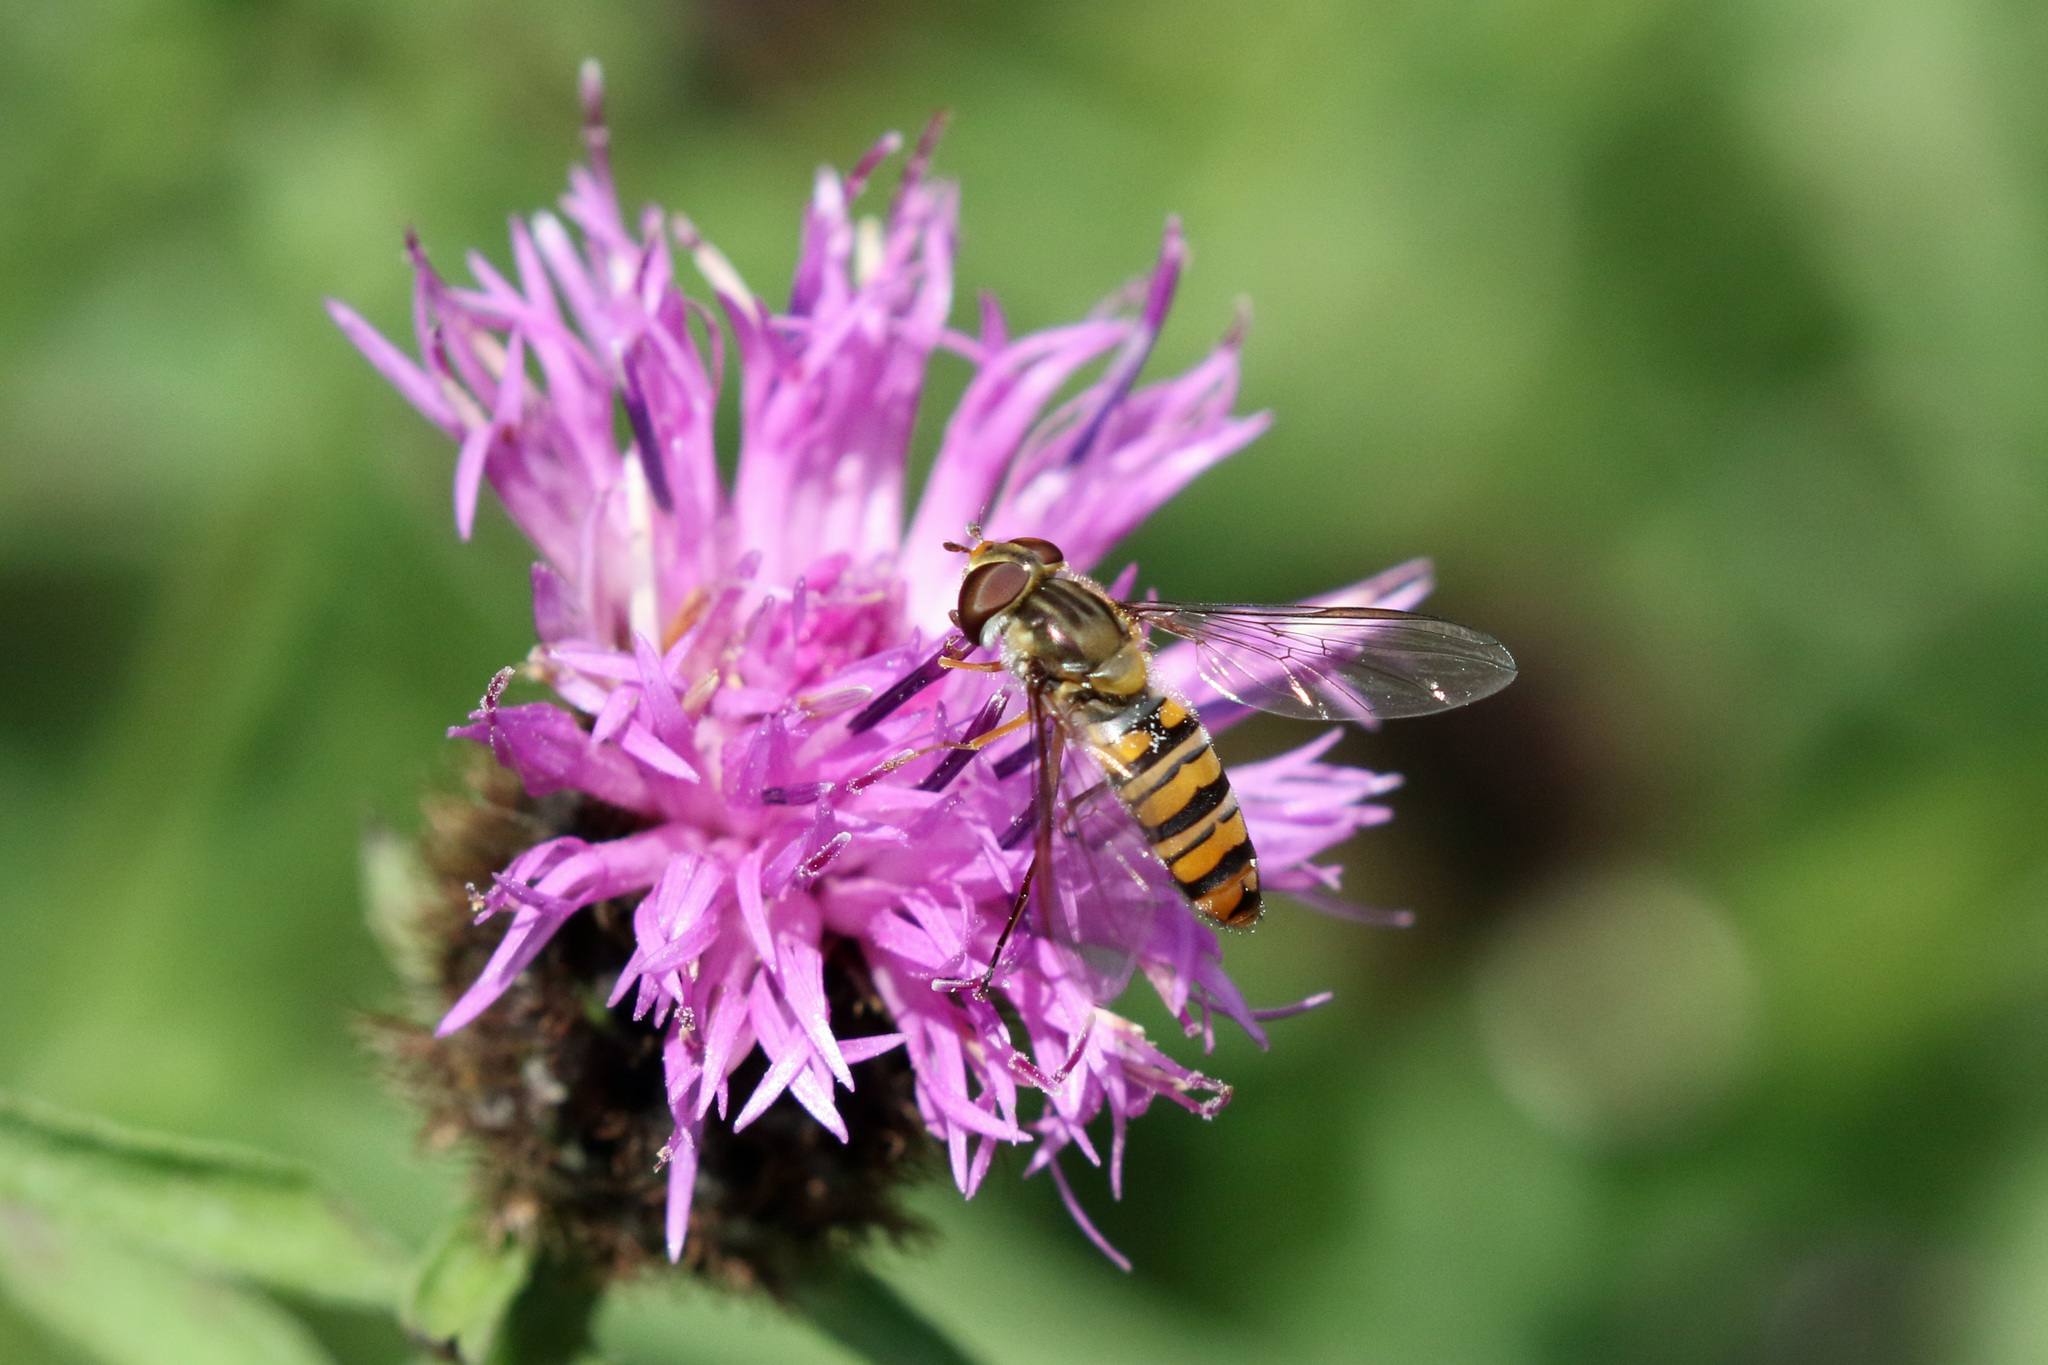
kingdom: Animalia
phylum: Arthropoda
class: Insecta
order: Diptera
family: Syrphidae
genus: Episyrphus
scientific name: Episyrphus balteatus
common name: Marmalade hoverfly
